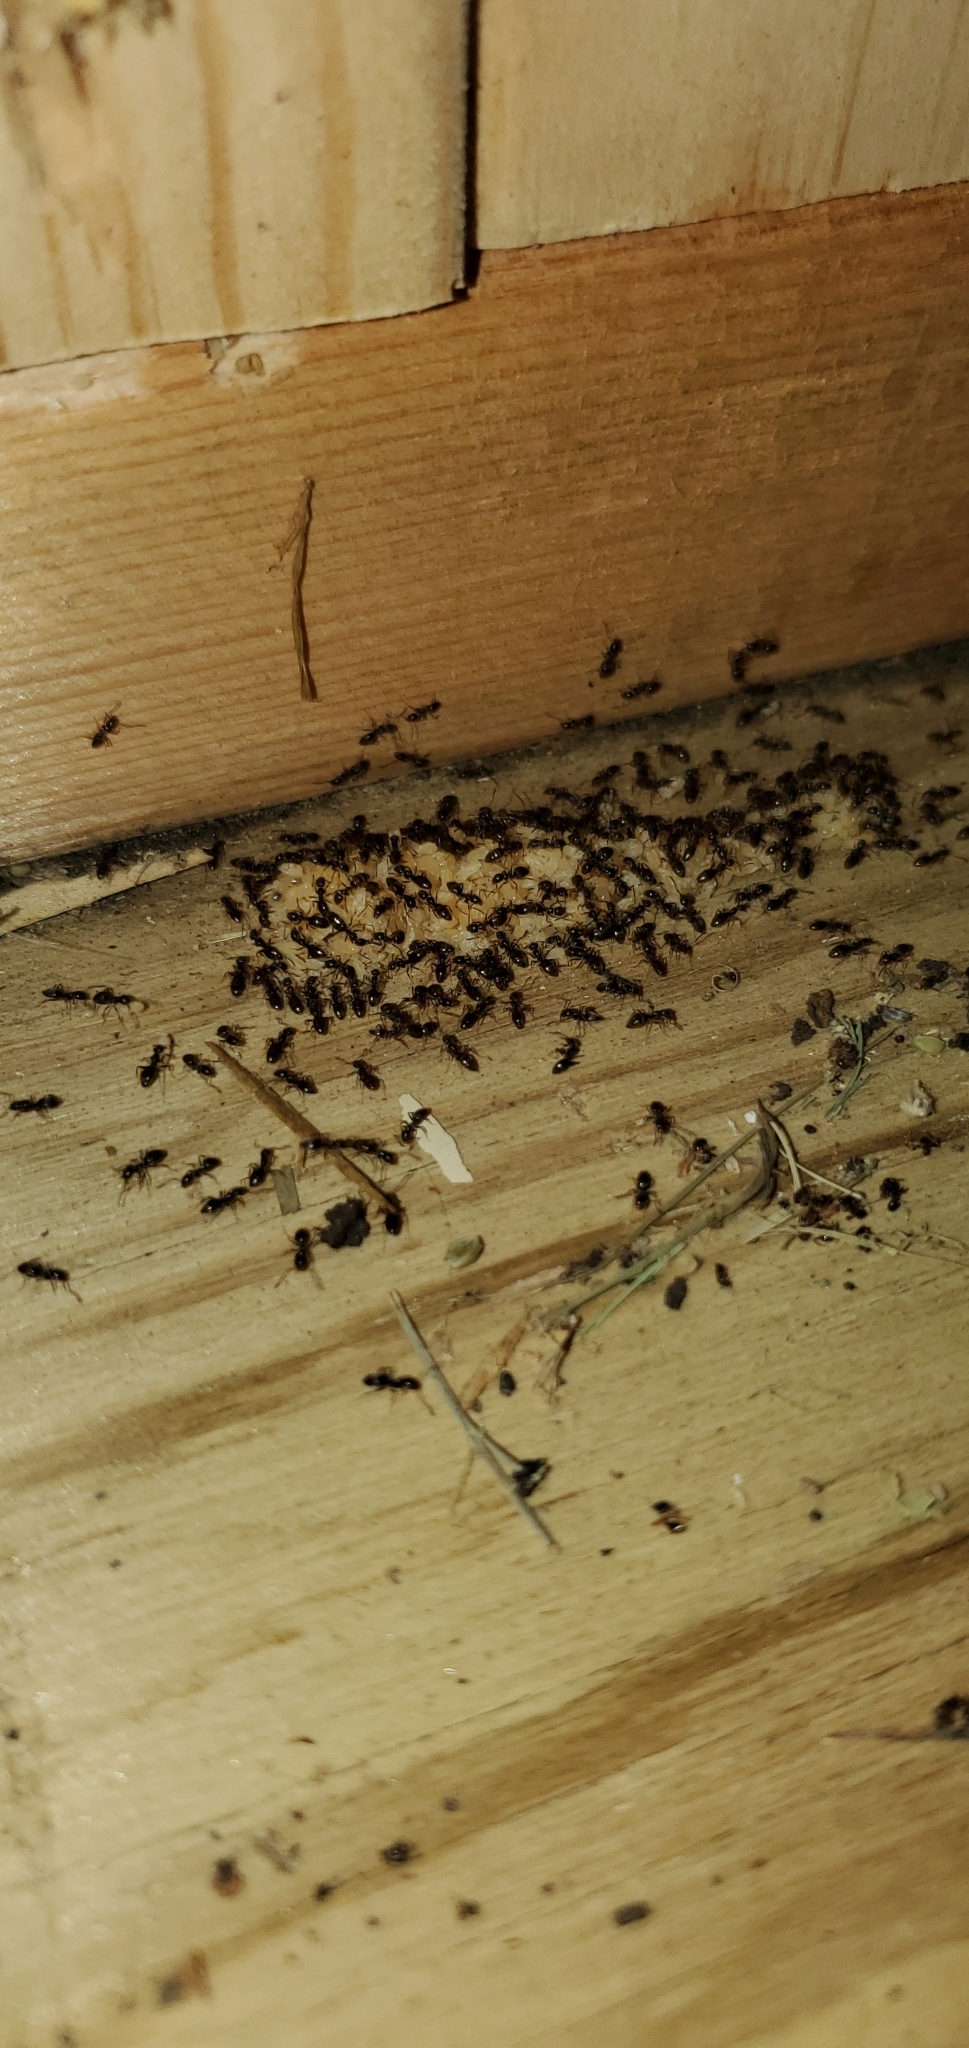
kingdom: Animalia
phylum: Arthropoda
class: Insecta
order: Hymenoptera
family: Formicidae
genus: Tapinoma
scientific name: Tapinoma sessile
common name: Odorous house ant
